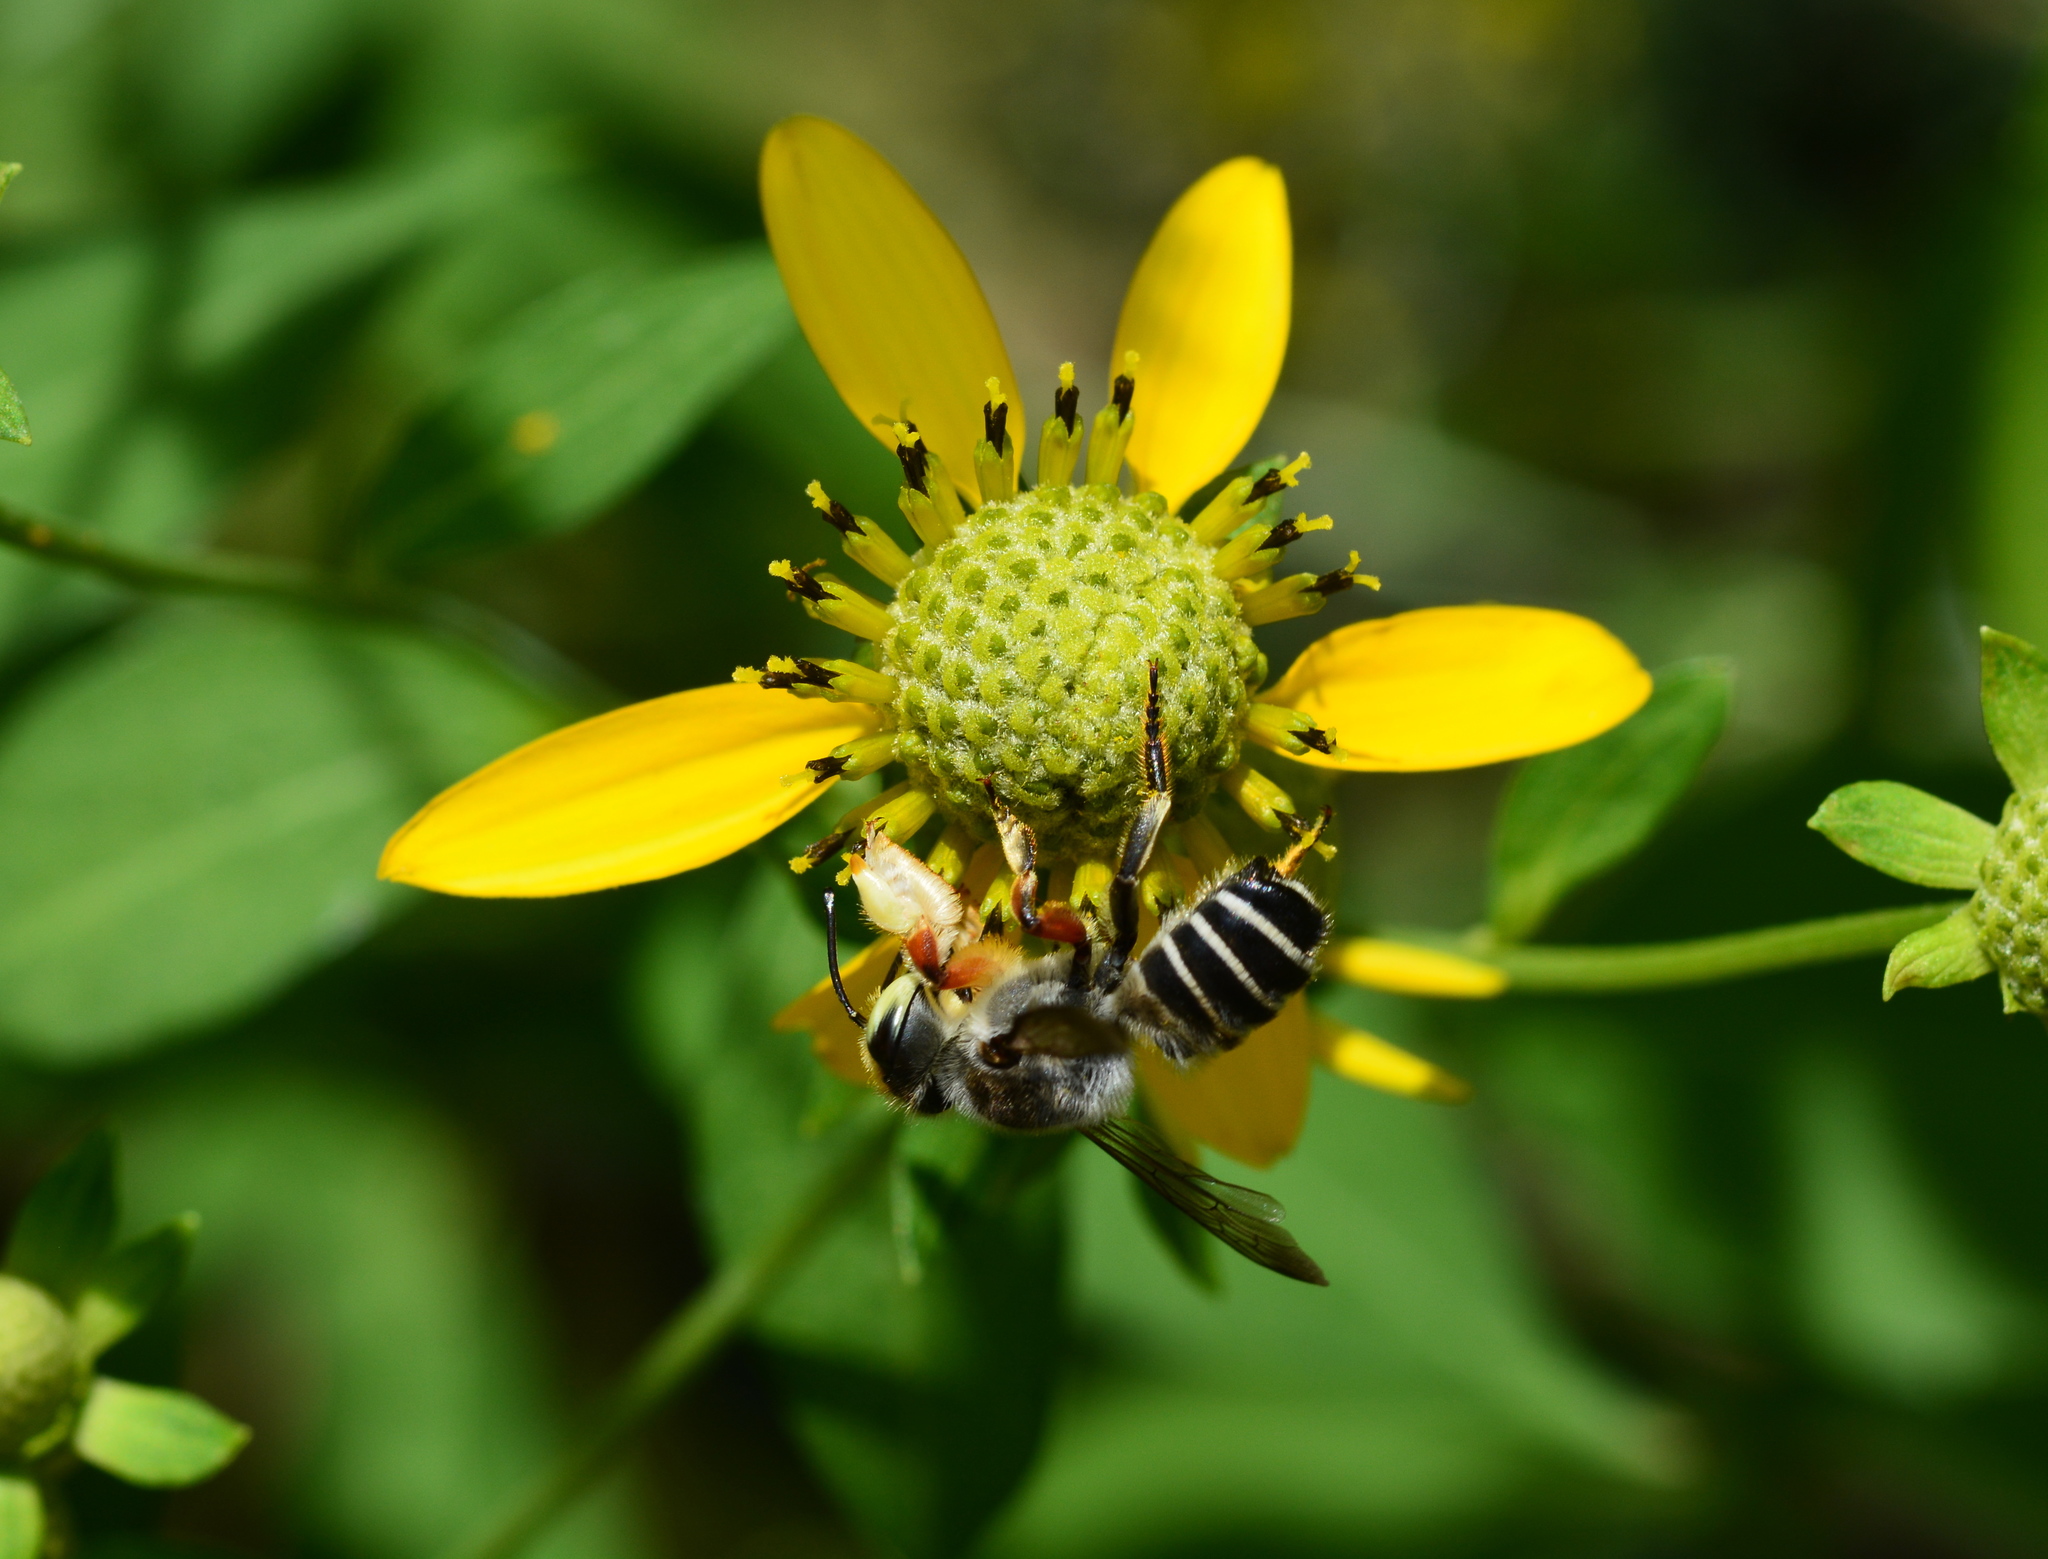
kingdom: Animalia
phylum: Arthropoda
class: Insecta
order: Hymenoptera
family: Megachilidae
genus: Megachile
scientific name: Megachile policaris
